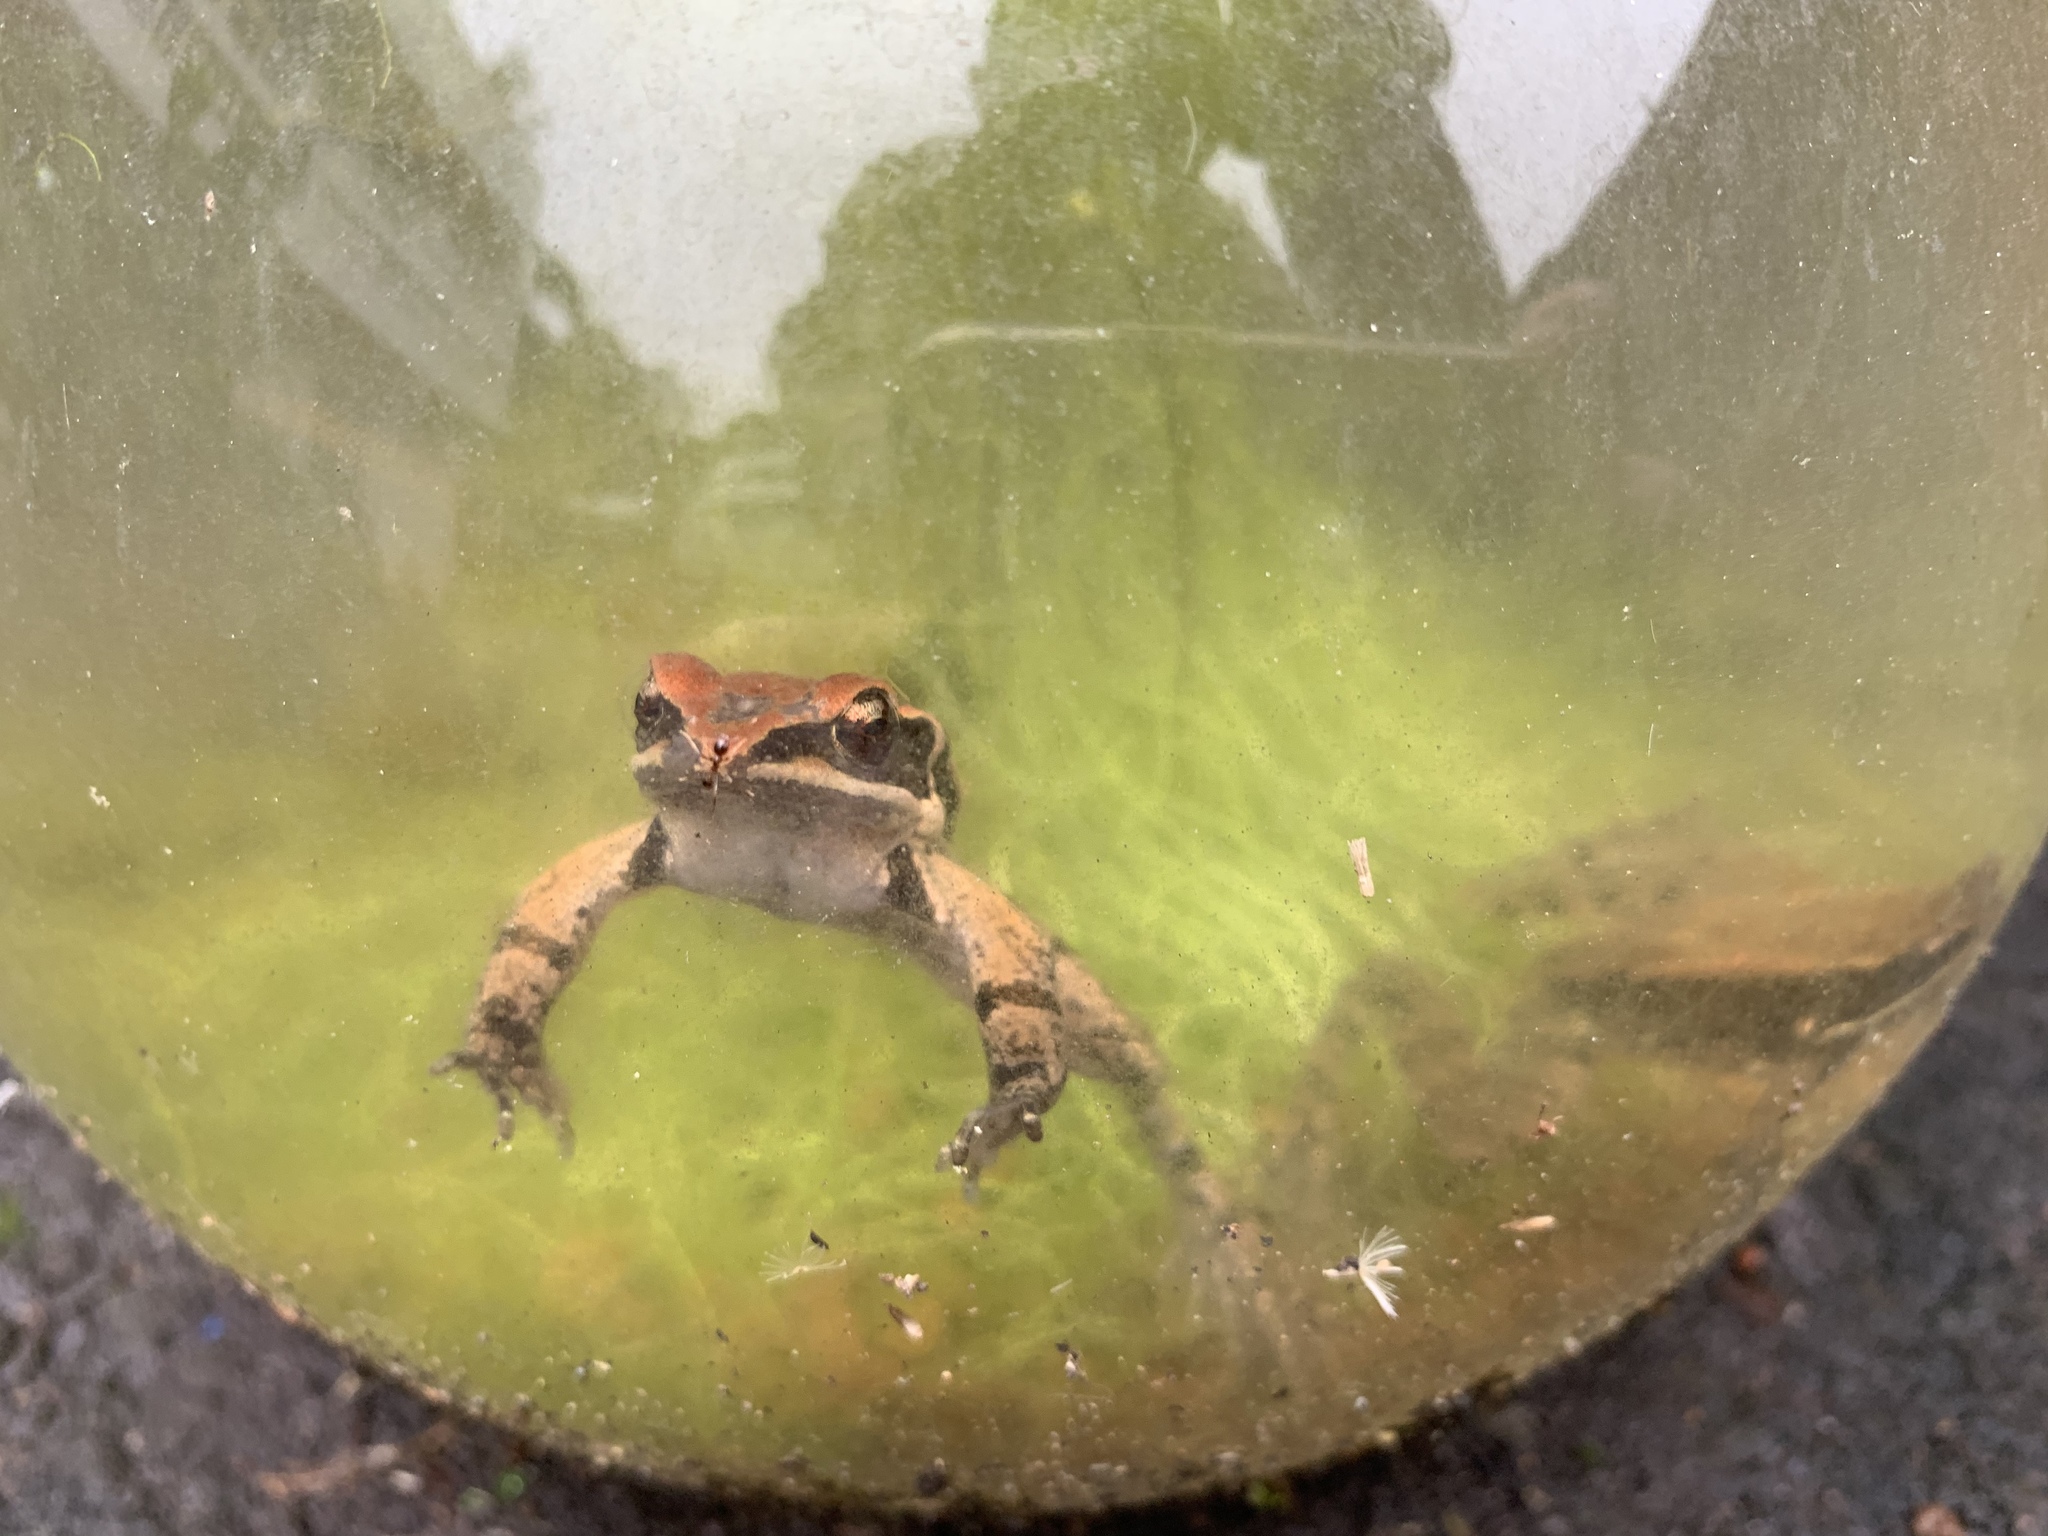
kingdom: Animalia
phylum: Chordata
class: Amphibia
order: Anura
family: Ranidae
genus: Hylarana
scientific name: Hylarana latouchii
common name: Broad-folded frog
